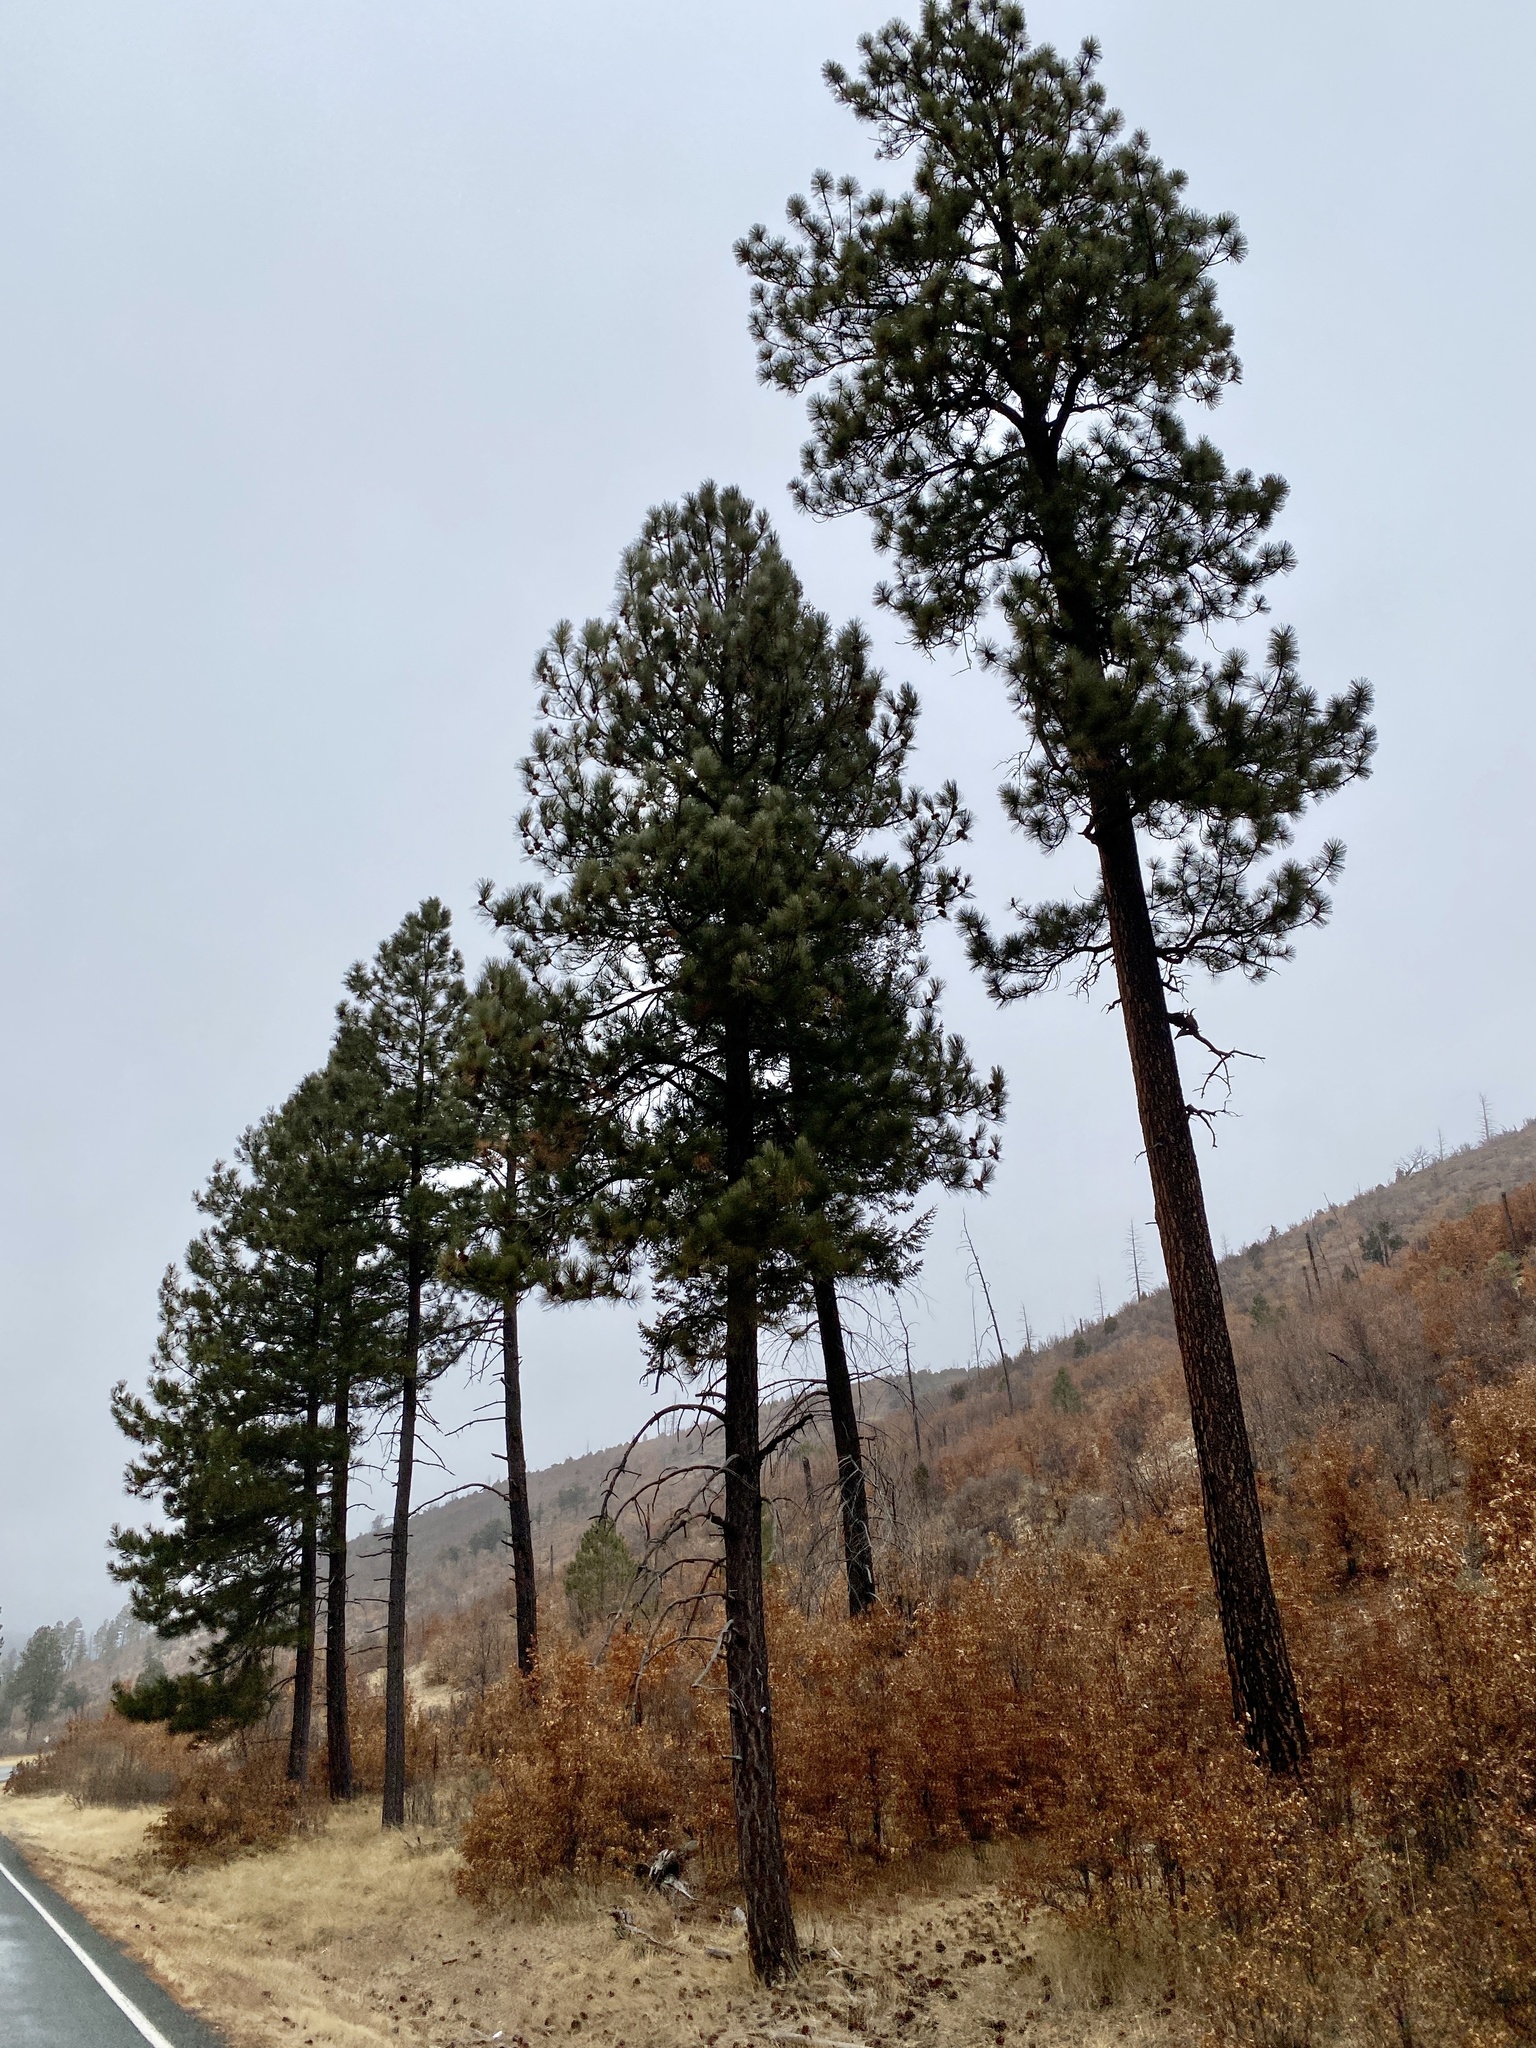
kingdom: Plantae
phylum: Tracheophyta
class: Pinopsida
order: Pinales
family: Pinaceae
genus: Pinus
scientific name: Pinus ponderosa
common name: Western yellow-pine
